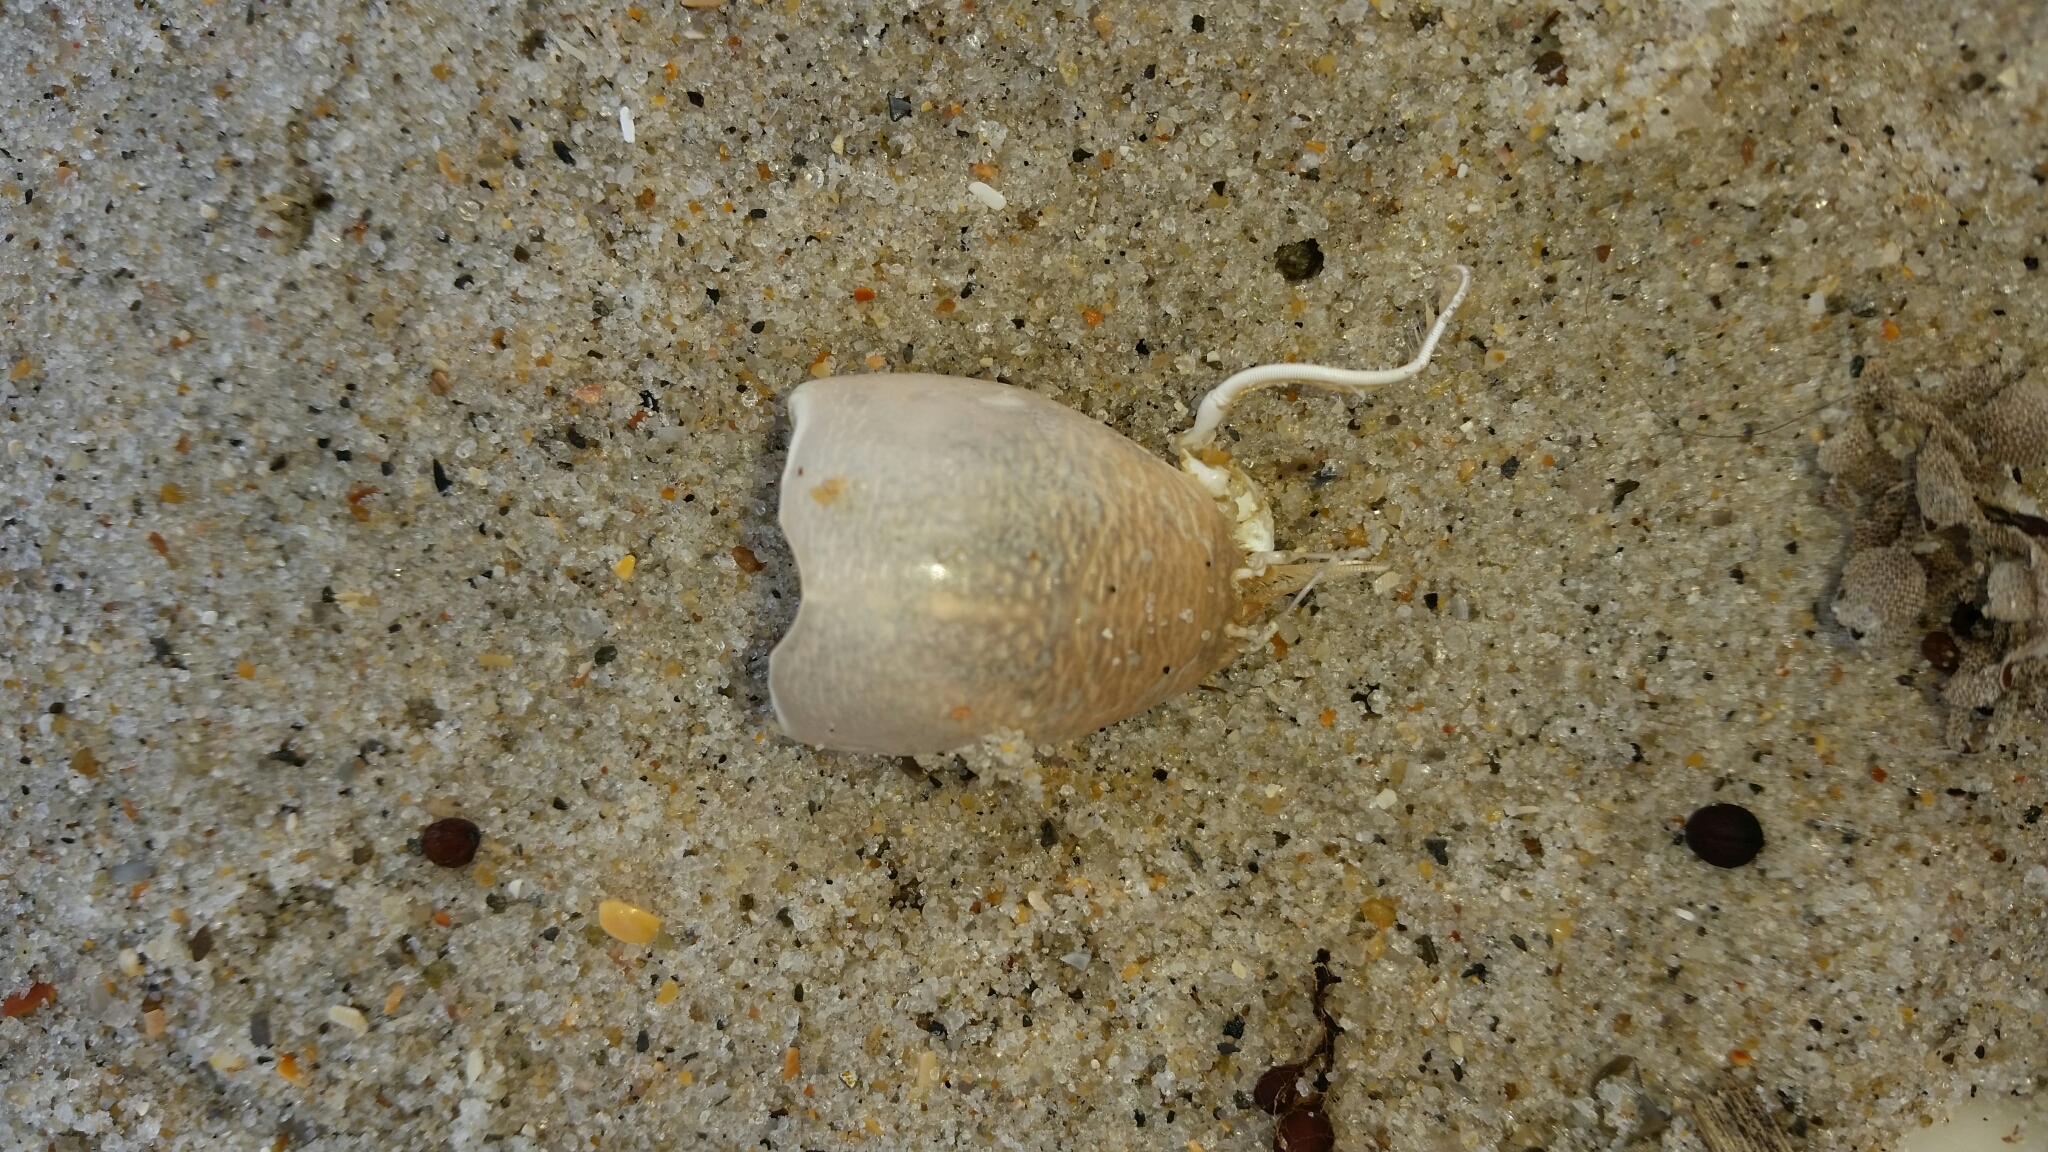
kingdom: Animalia
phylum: Arthropoda
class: Malacostraca
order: Decapoda
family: Hippidae
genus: Emerita
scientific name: Emerita talpoida
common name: Atlantic sand crab
